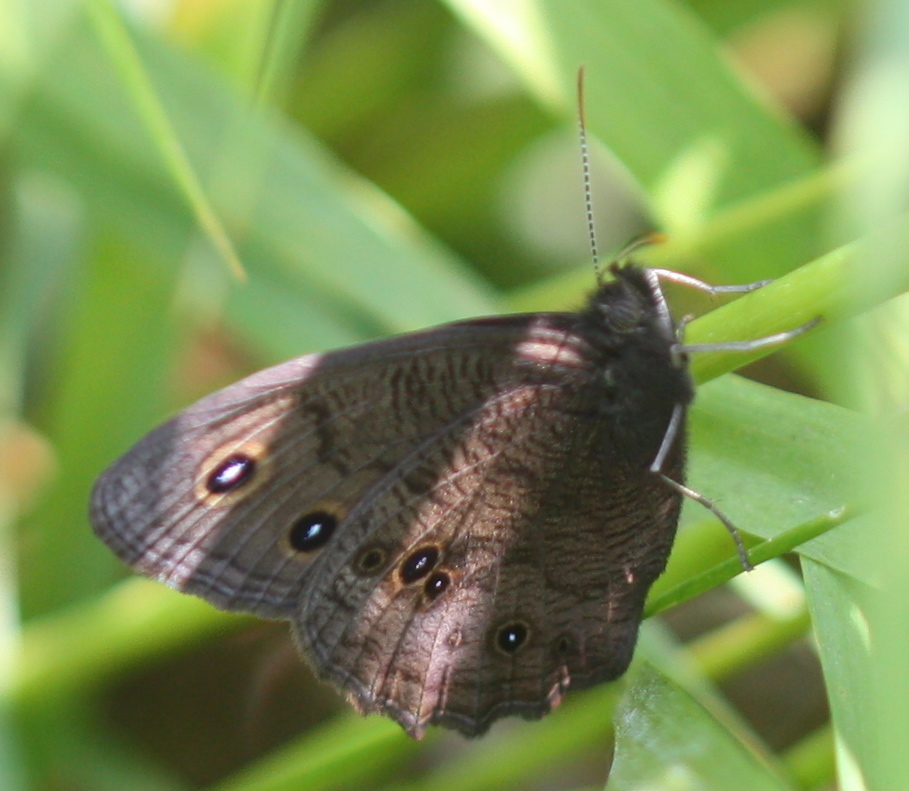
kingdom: Animalia
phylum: Arthropoda
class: Insecta
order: Lepidoptera
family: Nymphalidae
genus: Cercyonis
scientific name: Cercyonis pegala
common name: Common wood-nymph
